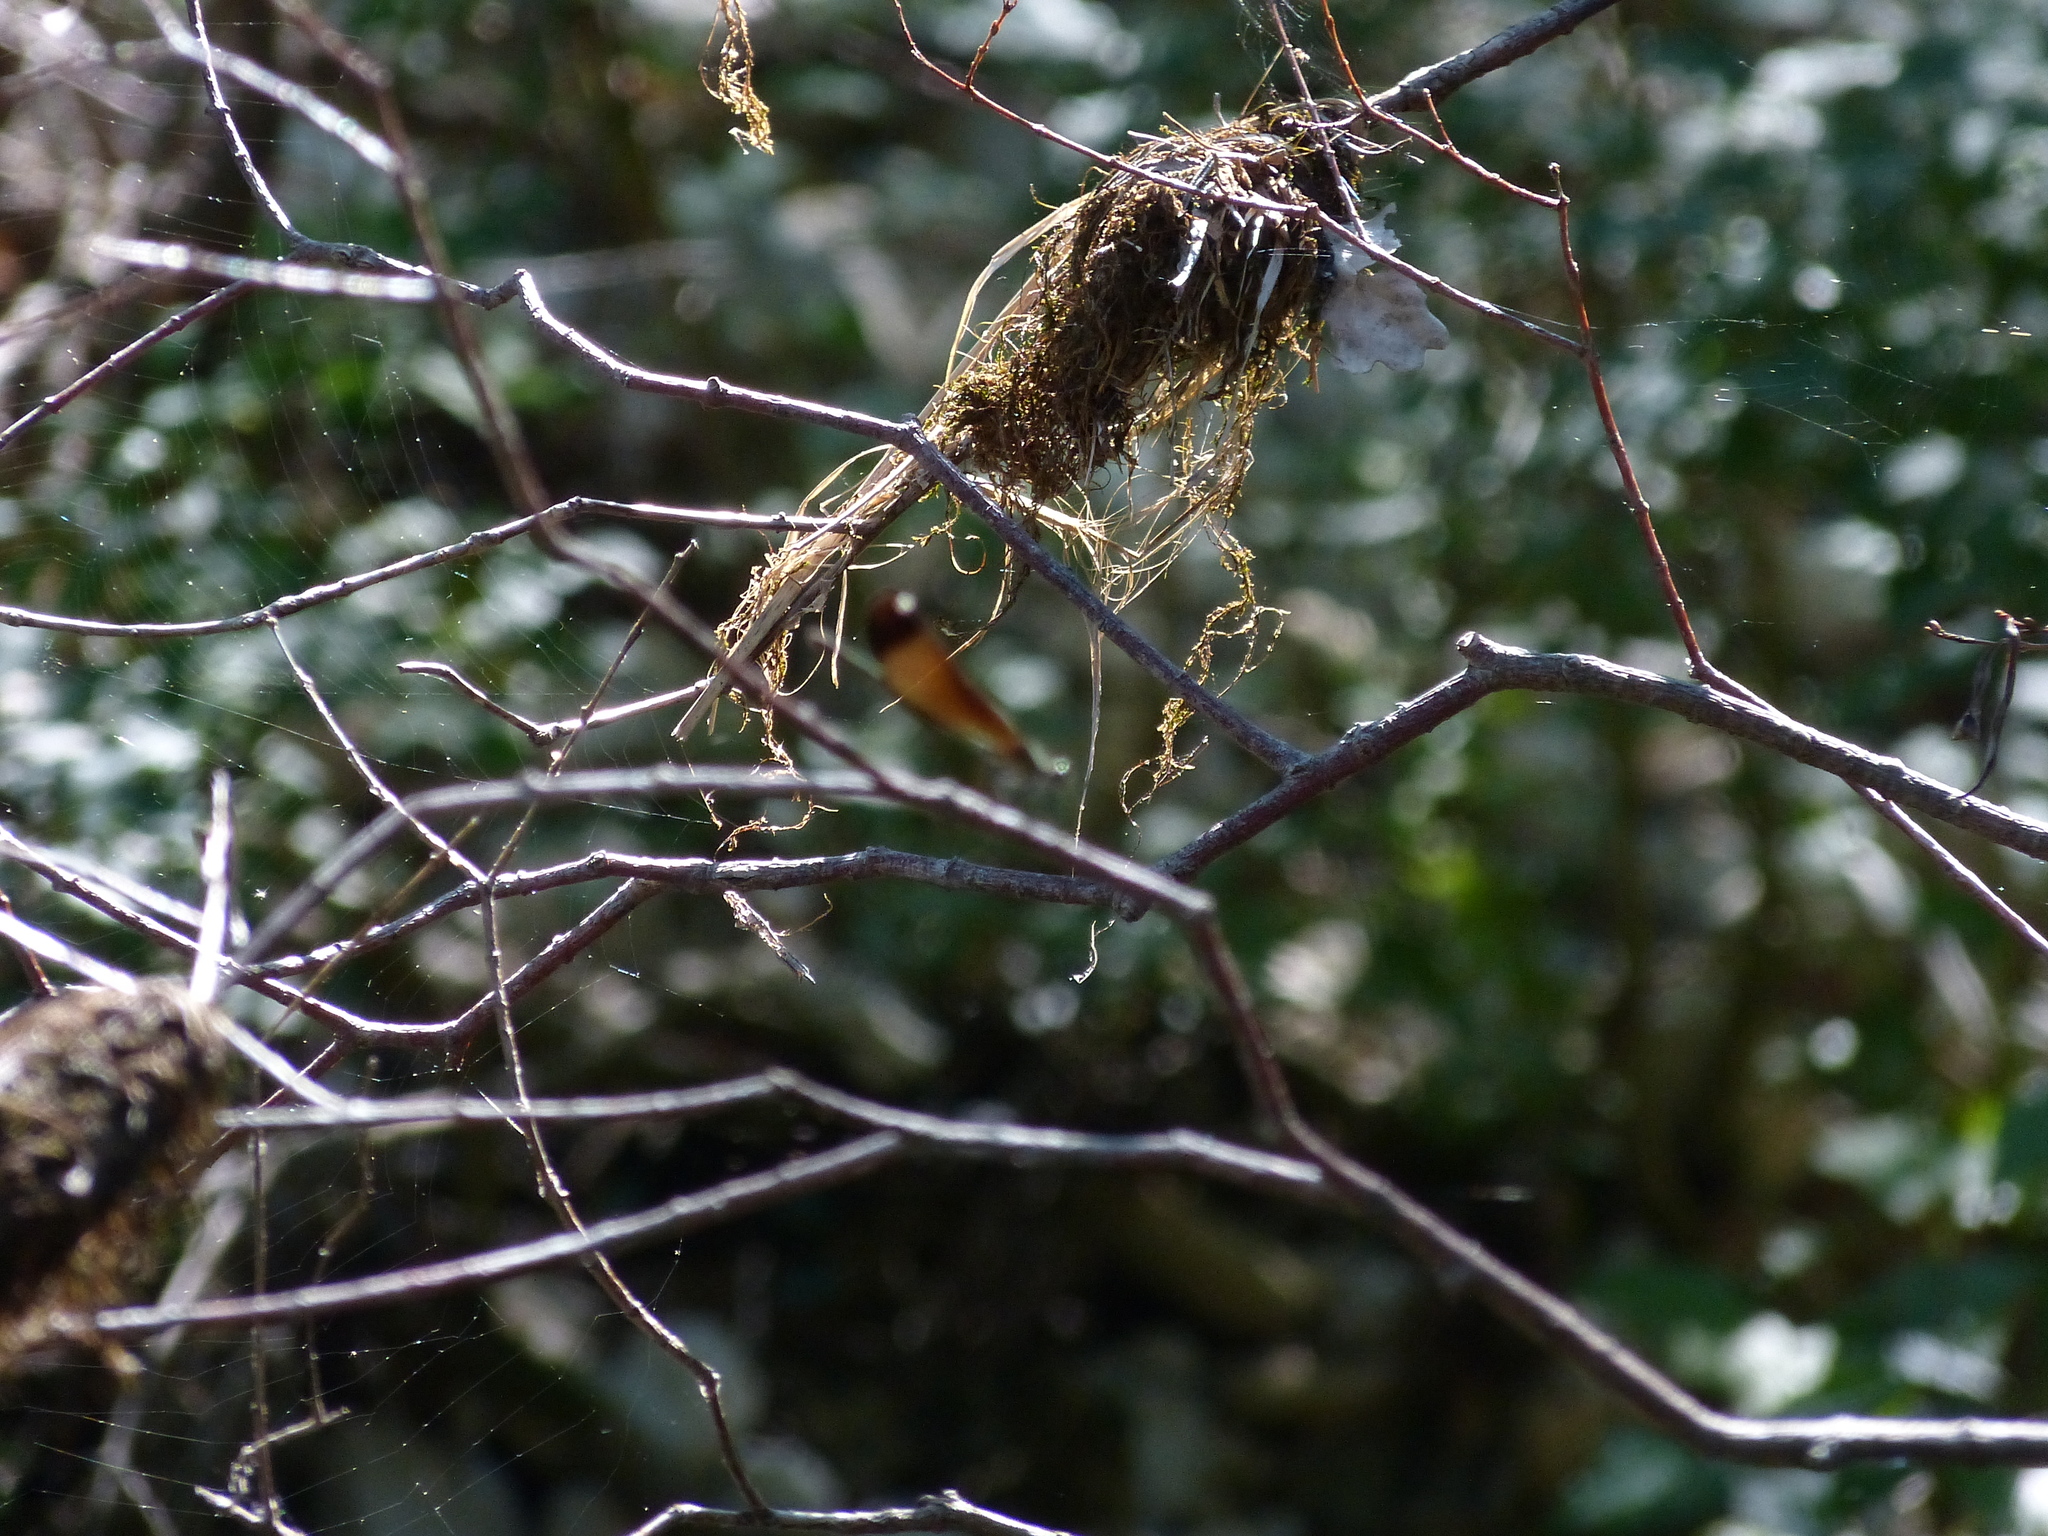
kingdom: Animalia
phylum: Arthropoda
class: Insecta
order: Odonata
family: Calopterygidae
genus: Calopteryx
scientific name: Calopteryx haemorrhoidalis
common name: Copper demoiselle
